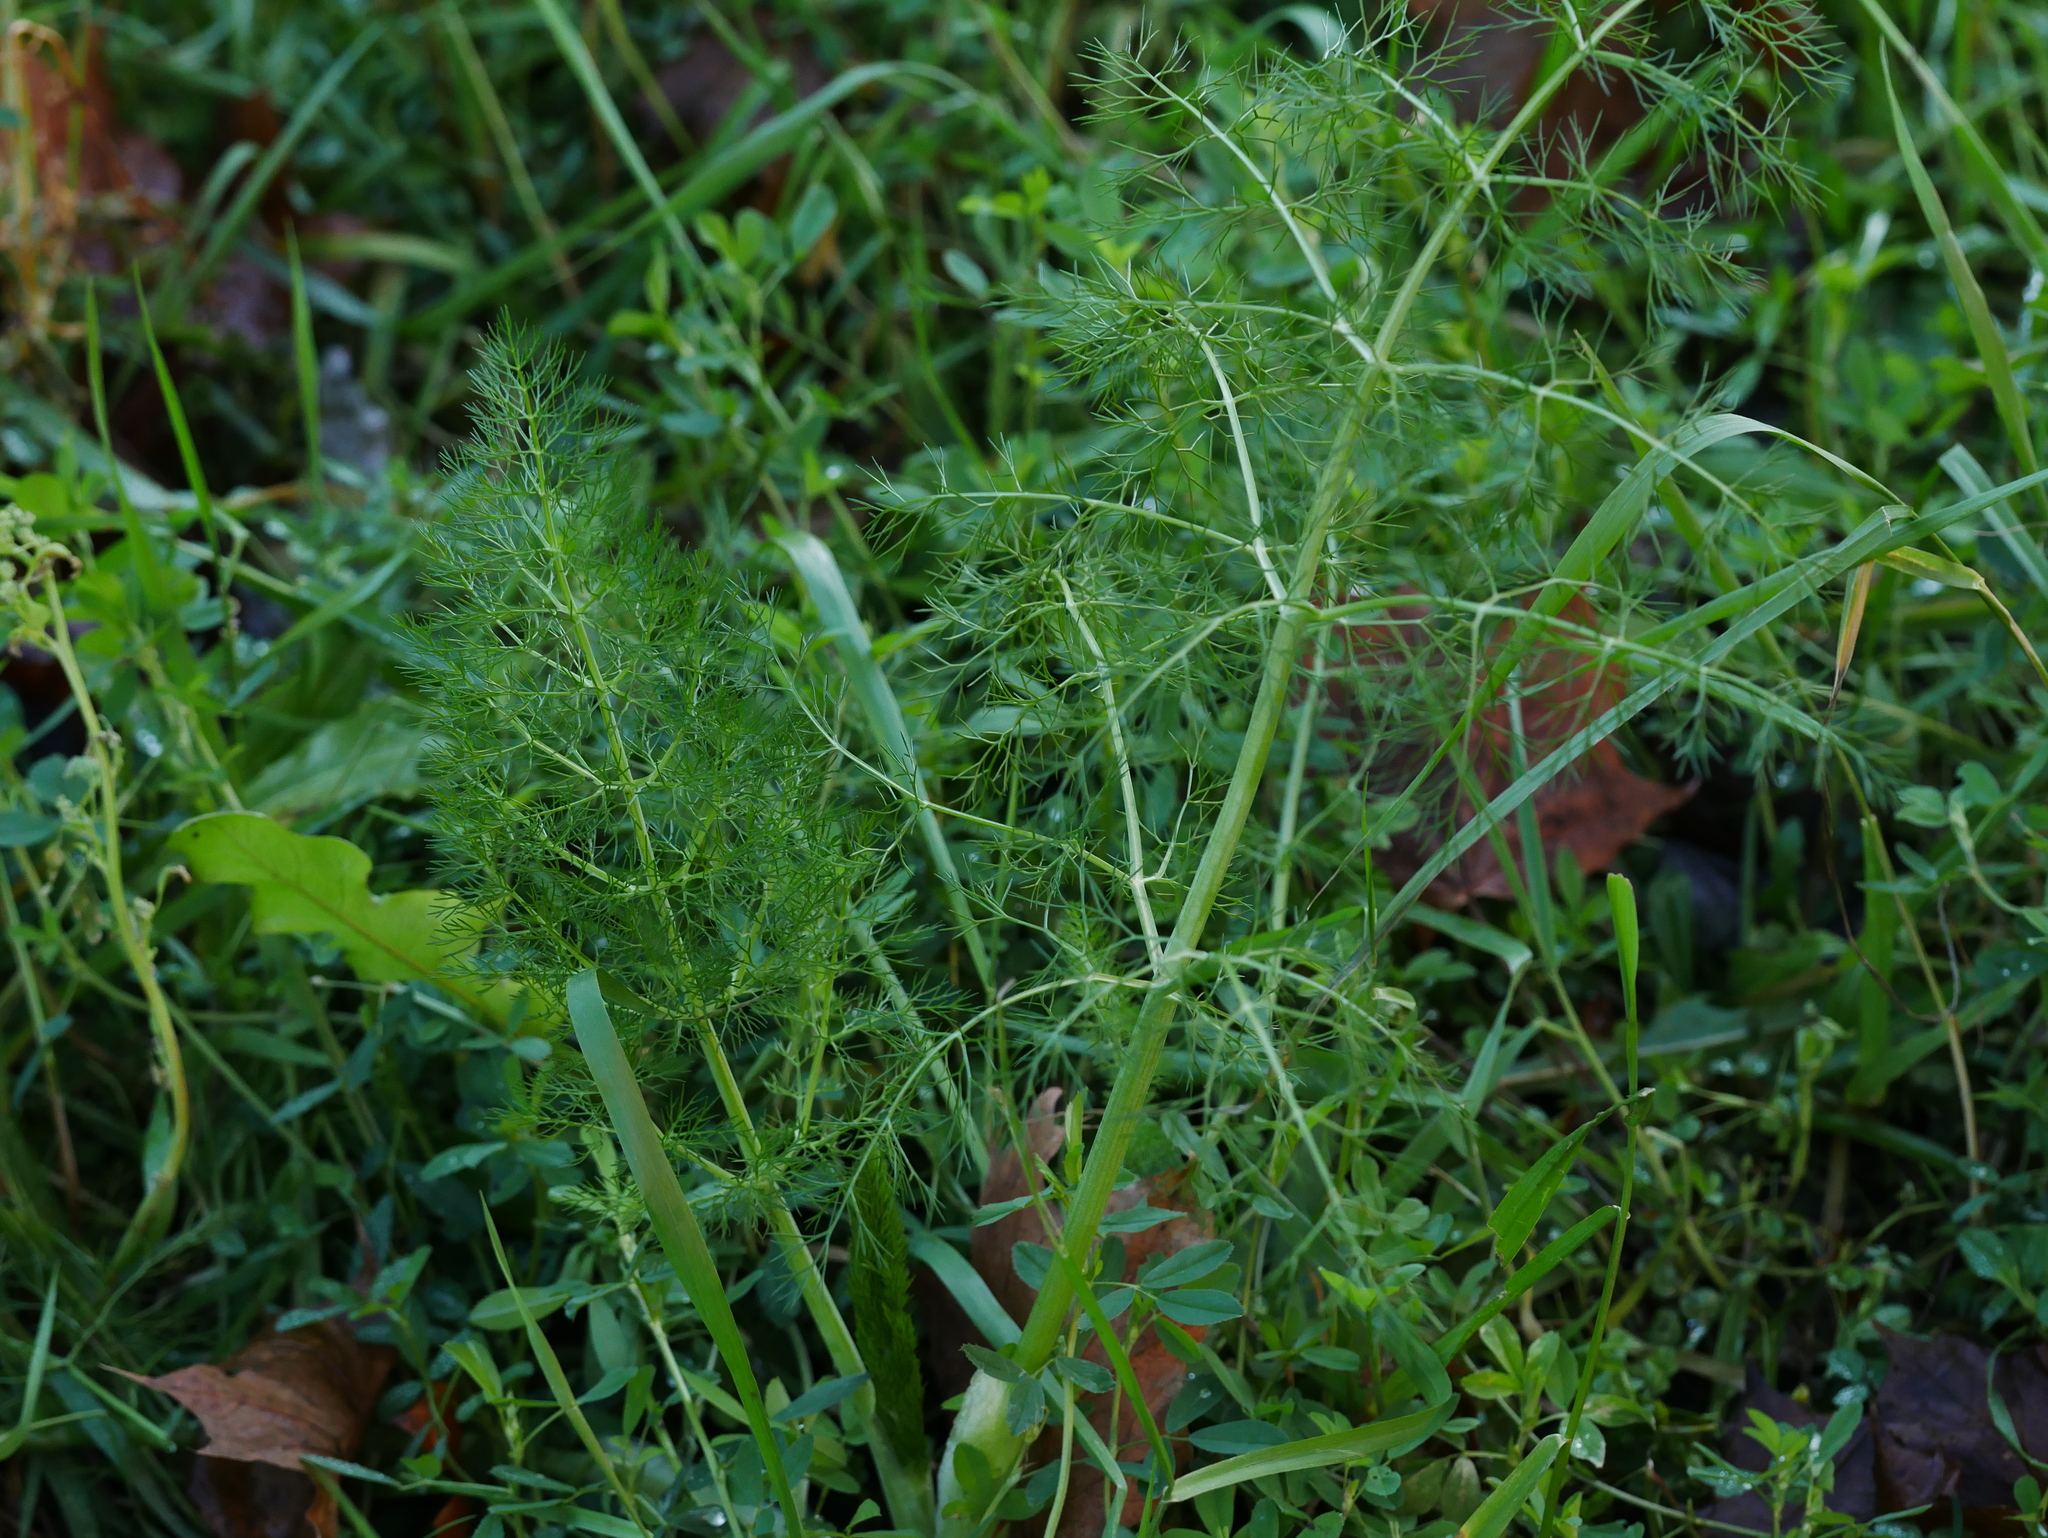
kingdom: Plantae
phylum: Tracheophyta
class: Magnoliopsida
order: Apiales
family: Apiaceae
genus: Foeniculum
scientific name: Foeniculum vulgare
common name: Fennel
